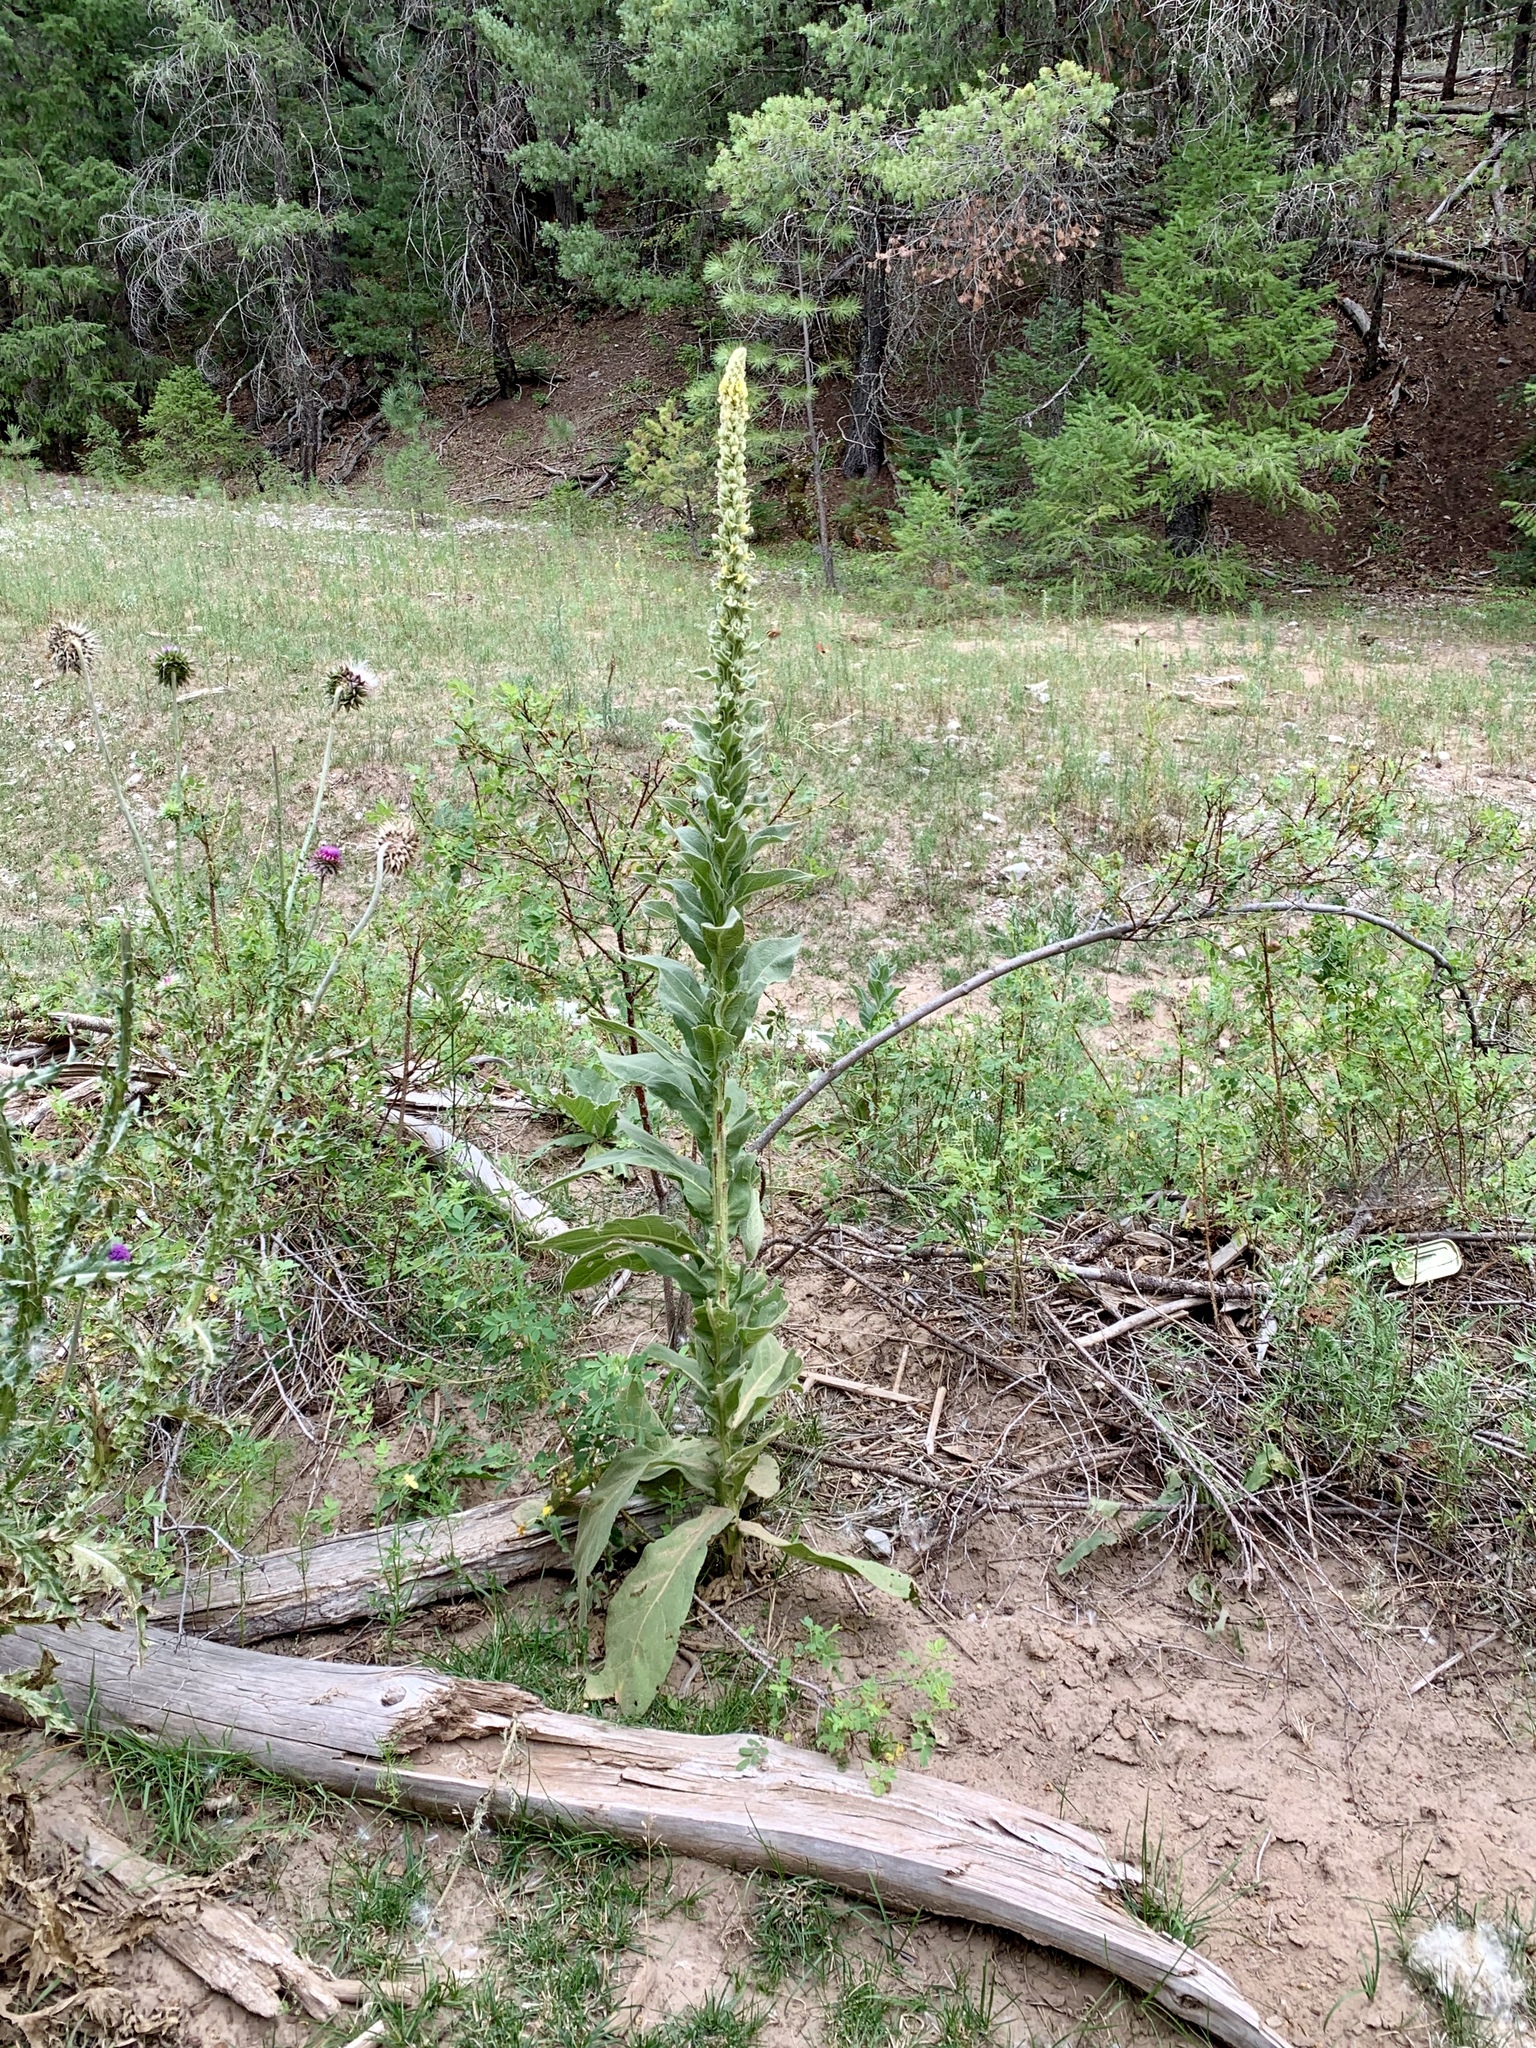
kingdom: Plantae
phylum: Tracheophyta
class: Magnoliopsida
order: Lamiales
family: Scrophulariaceae
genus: Verbascum
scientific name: Verbascum thapsus
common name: Common mullein
